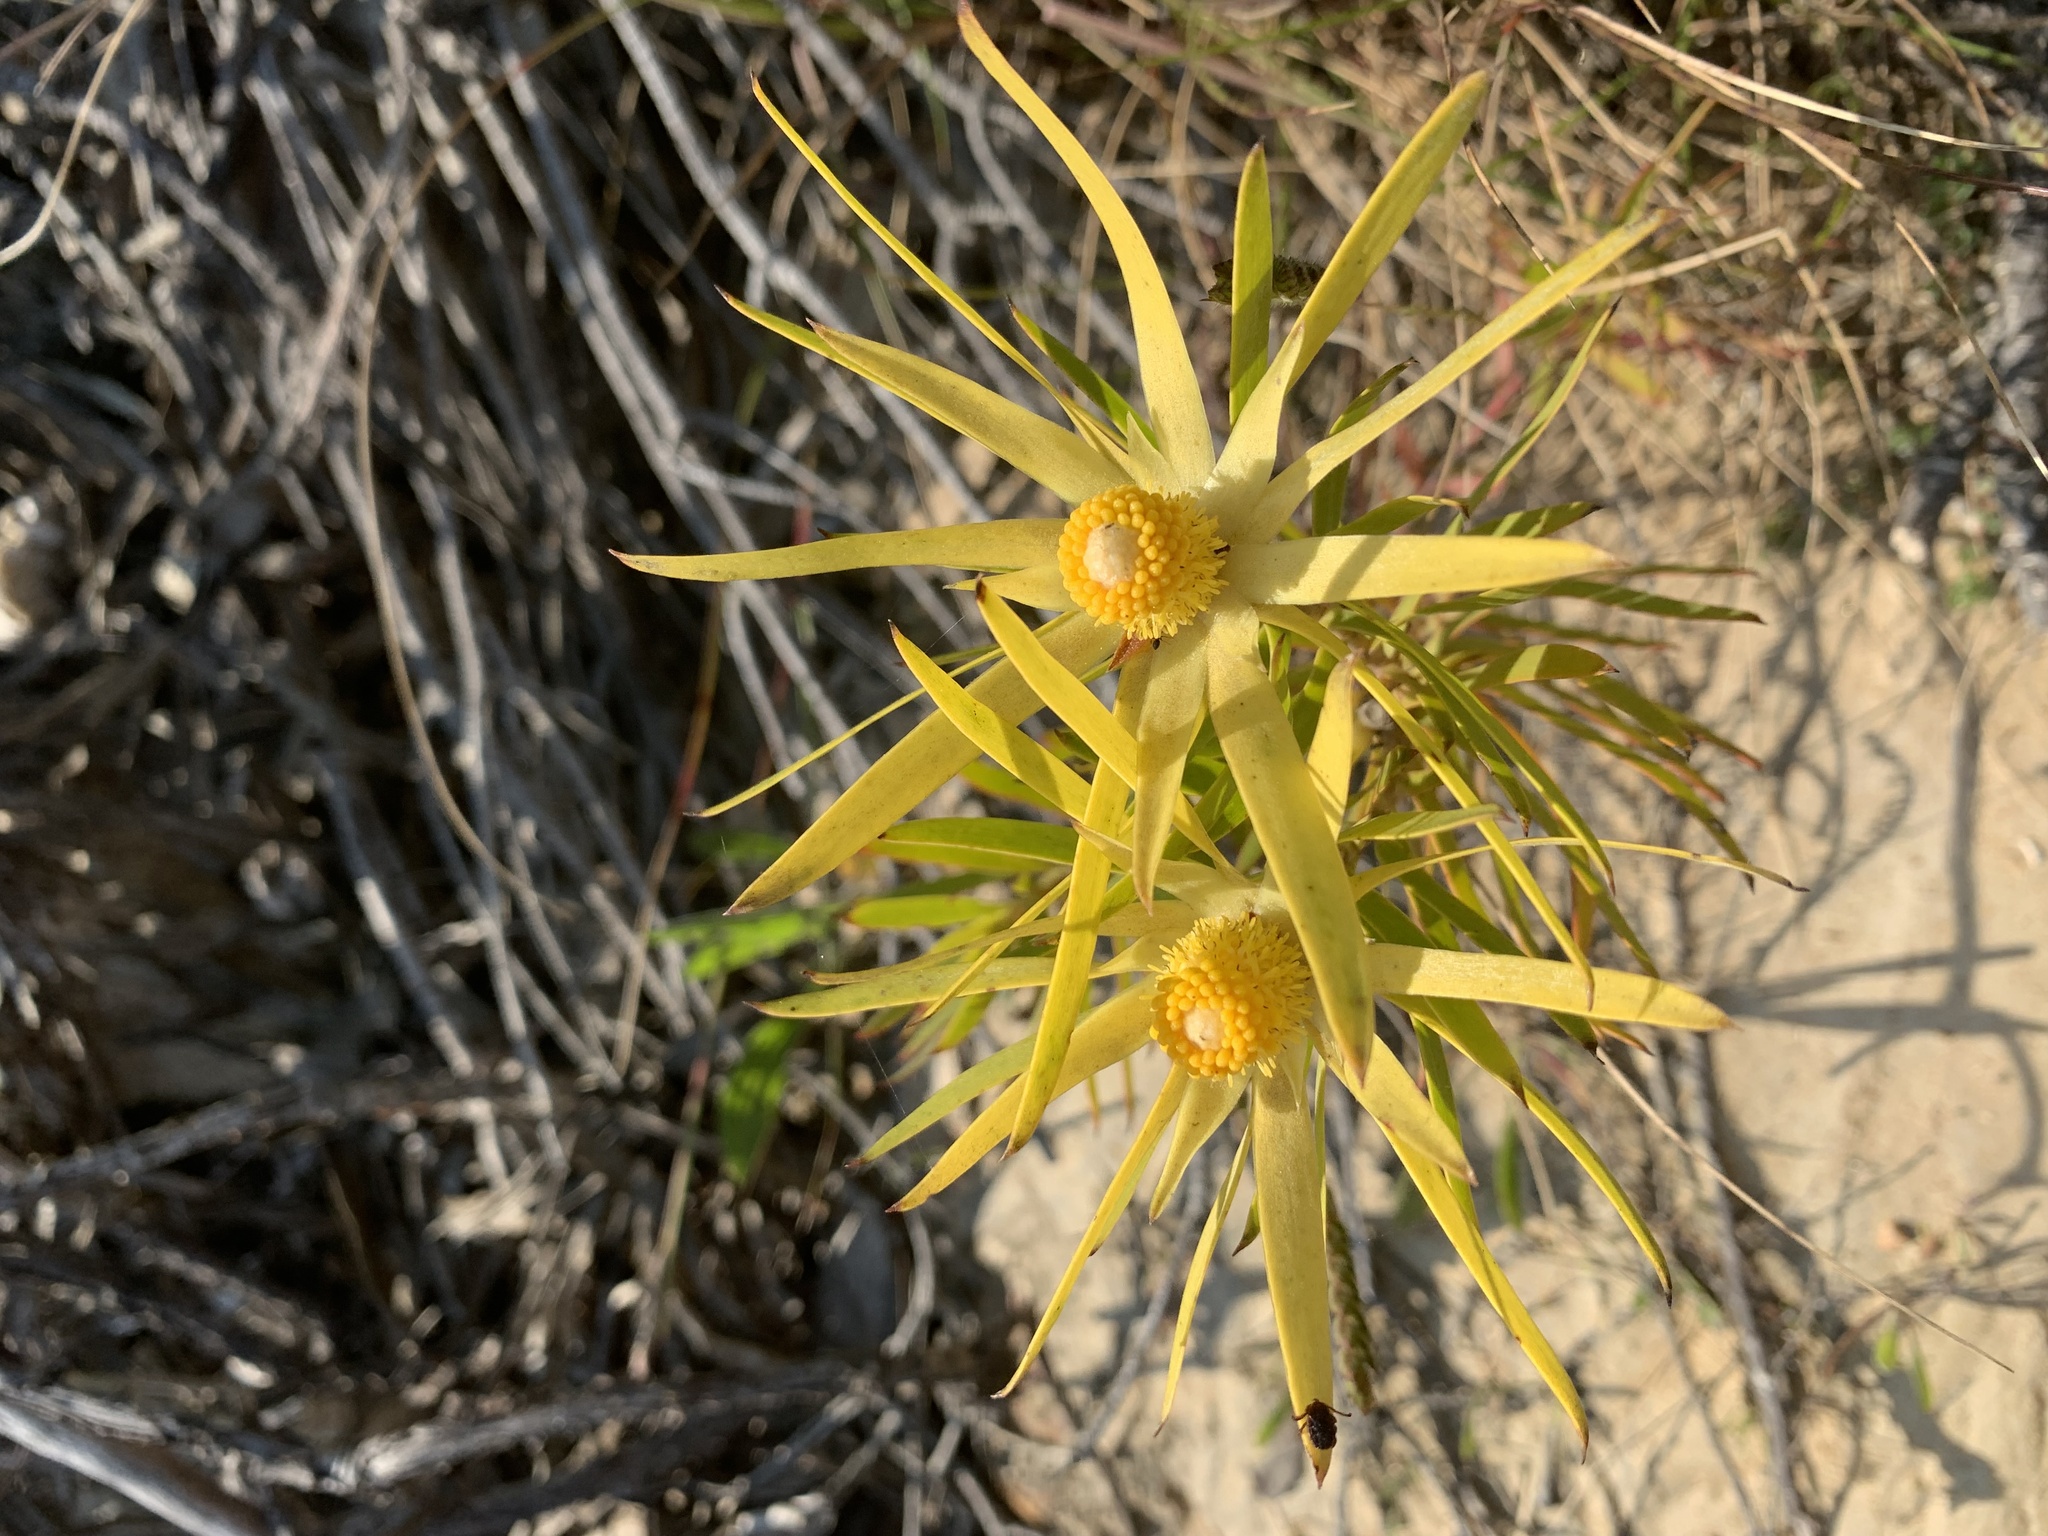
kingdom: Plantae
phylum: Tracheophyta
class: Magnoliopsida
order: Proteales
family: Proteaceae
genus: Leucadendron
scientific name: Leucadendron xanthoconus
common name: Sickle-leaf conebush
